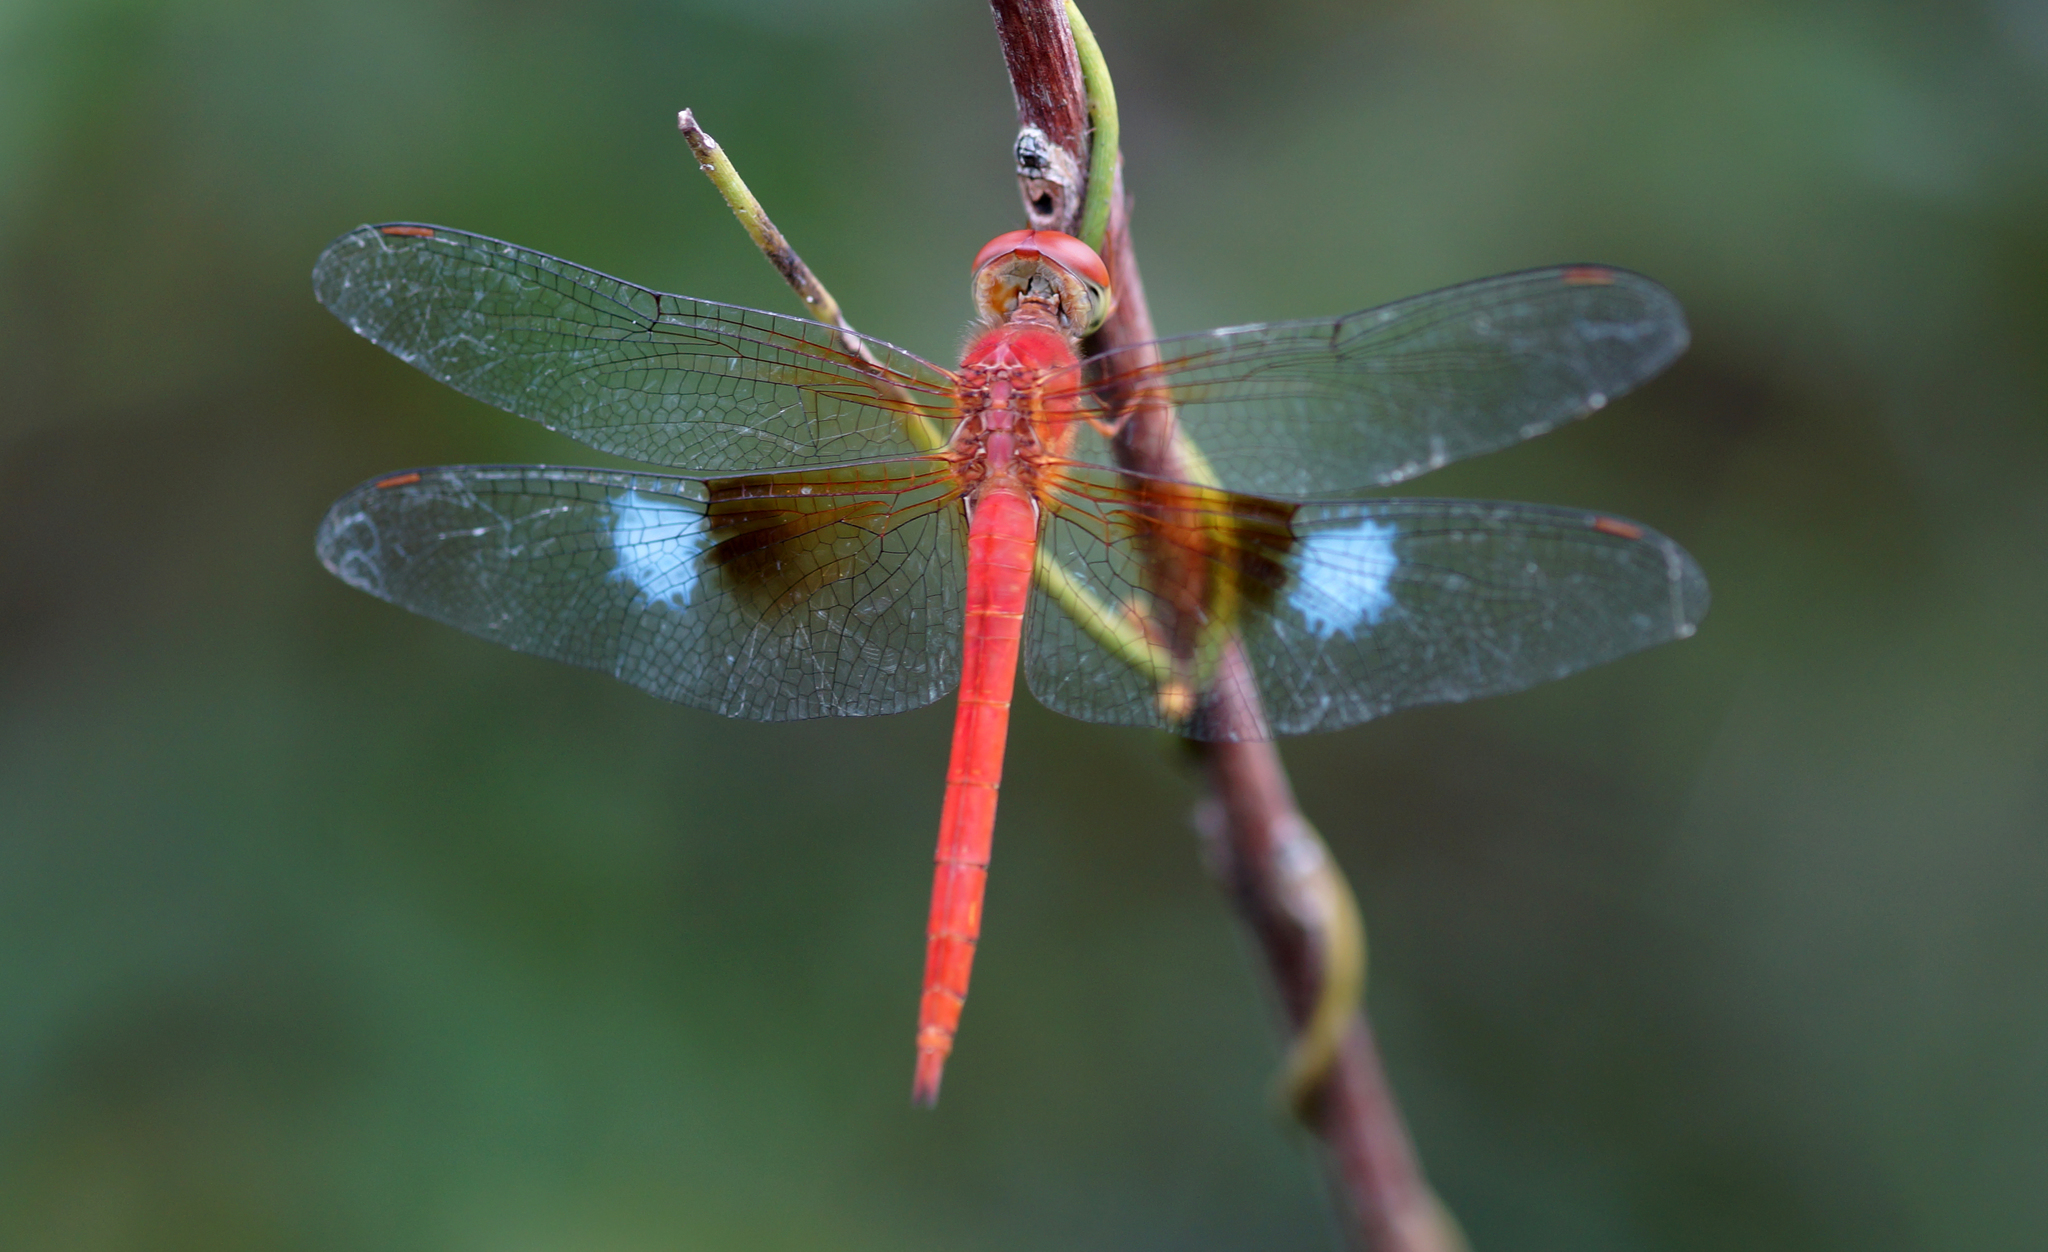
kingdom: Animalia
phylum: Arthropoda
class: Insecta
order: Odonata
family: Libellulidae
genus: Tholymis
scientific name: Tholymis tillarga
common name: Coral-tailed cloud wing
